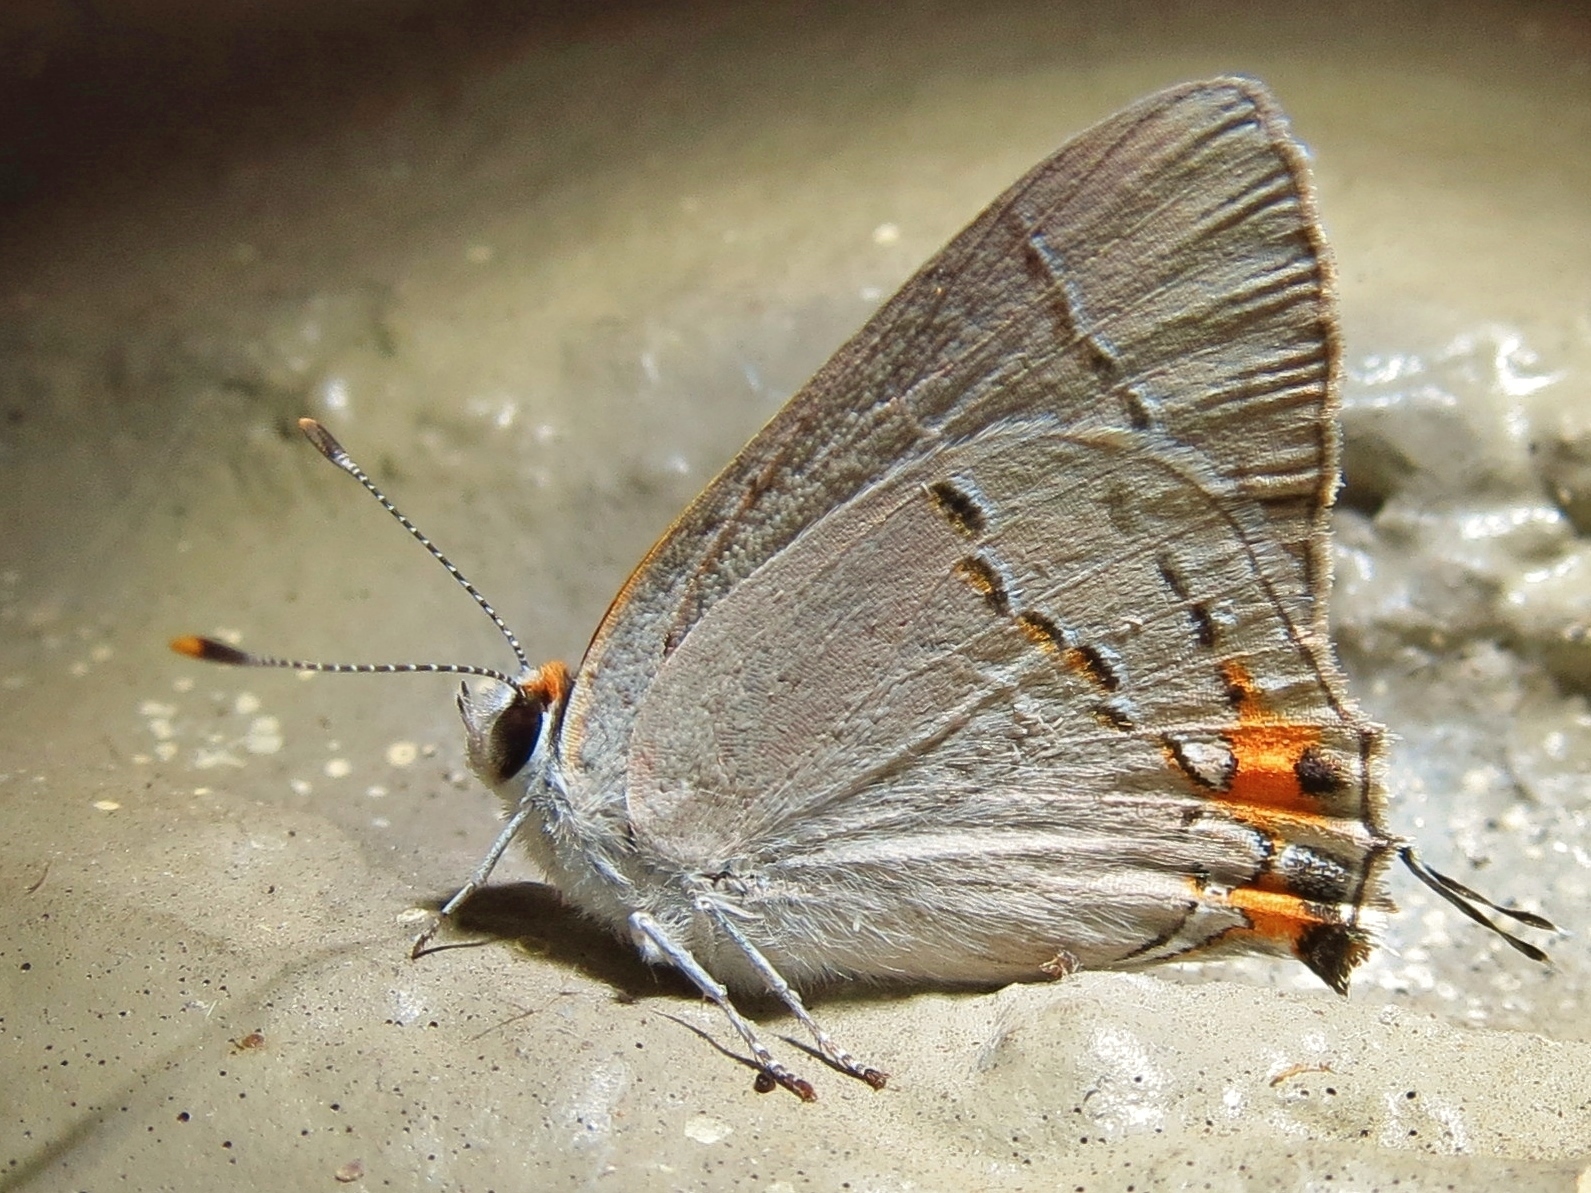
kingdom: Animalia
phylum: Arthropoda
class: Insecta
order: Lepidoptera
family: Lycaenidae
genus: Strymon
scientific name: Strymon melinus
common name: Gray hairstreak
